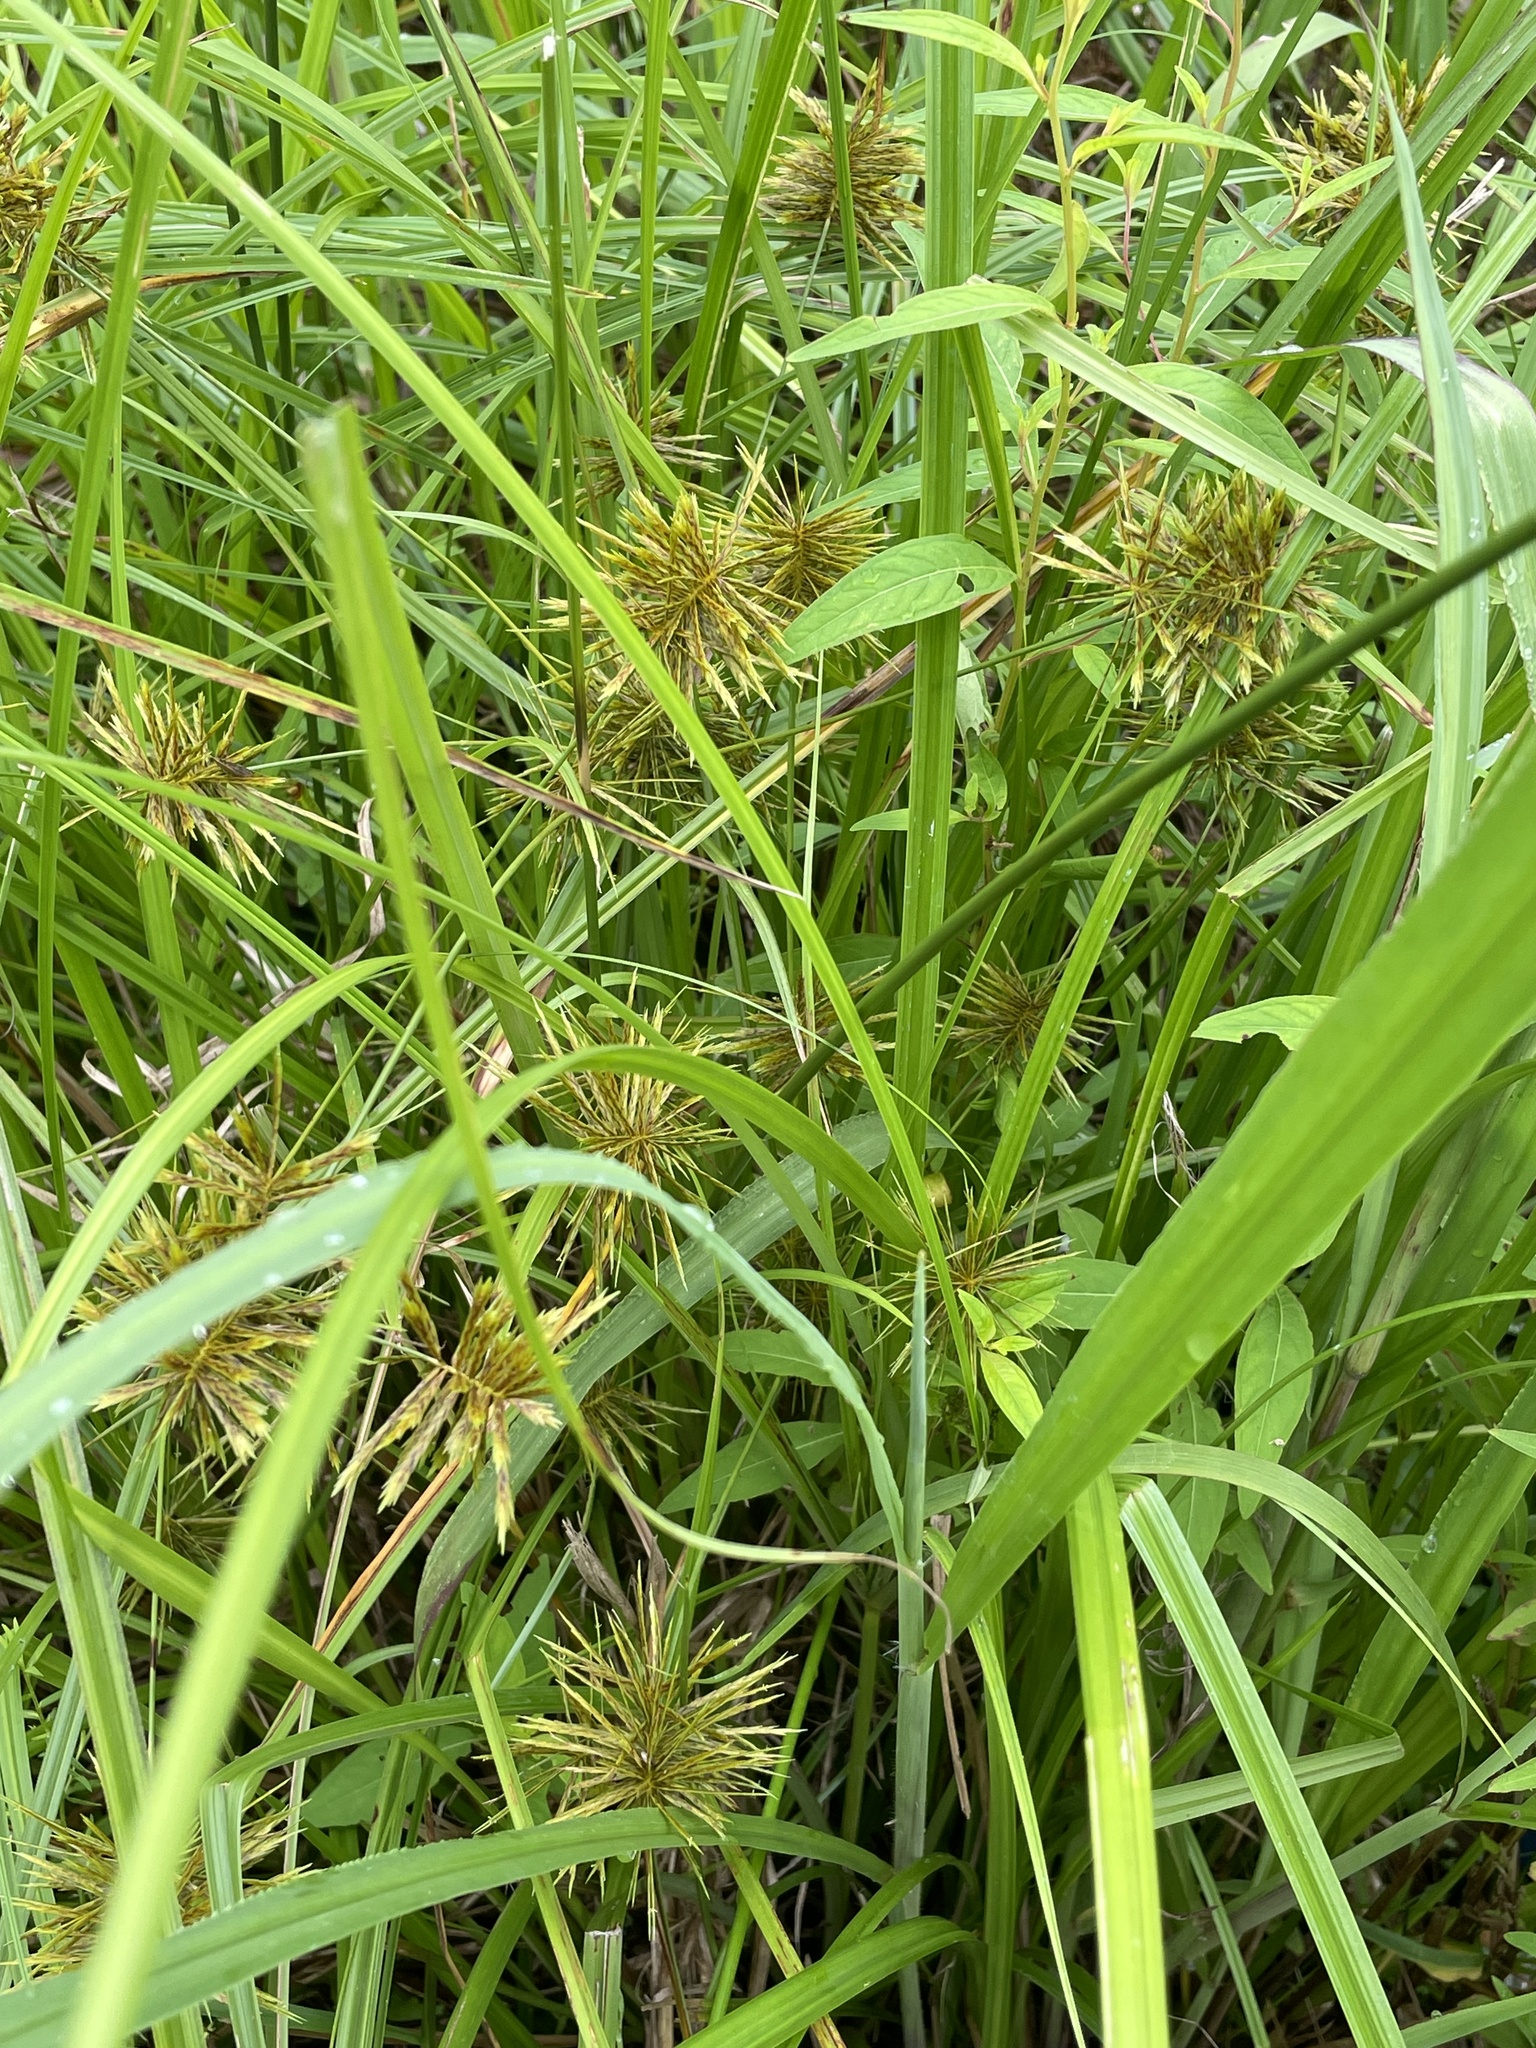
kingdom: Plantae
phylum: Tracheophyta
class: Liliopsida
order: Poales
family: Cyperaceae
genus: Cyperus
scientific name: Cyperus strigosus
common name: False nutsedge
